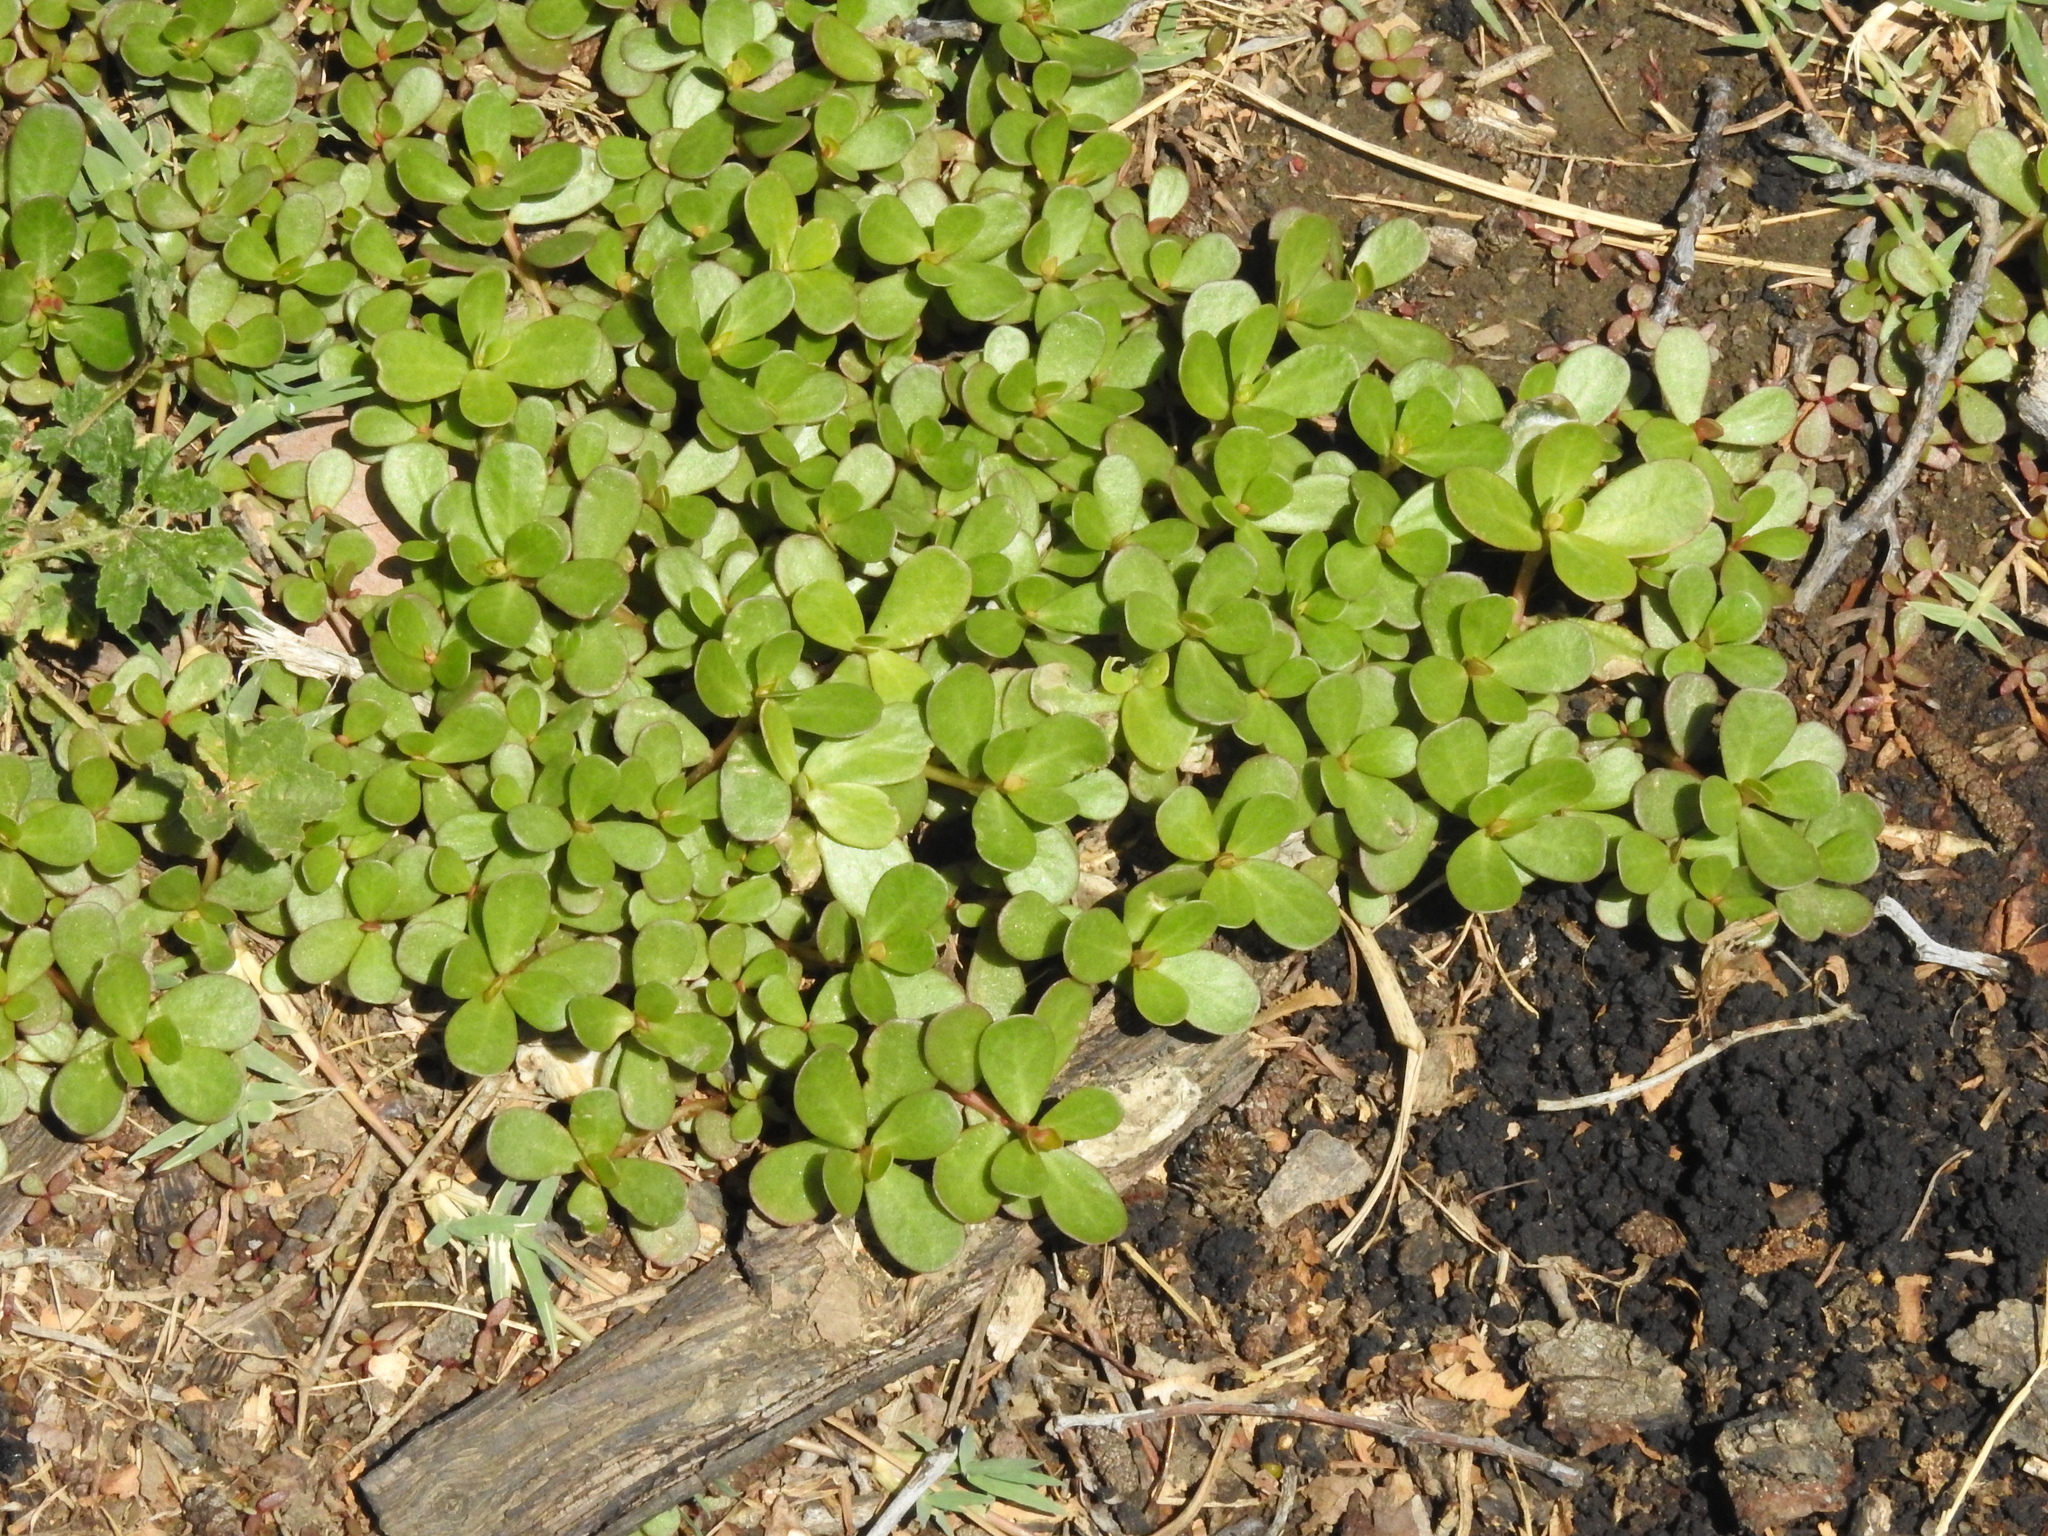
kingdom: Plantae
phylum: Tracheophyta
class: Magnoliopsida
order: Caryophyllales
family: Portulacaceae
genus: Portulaca
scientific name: Portulaca oleracea
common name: Common purslane
